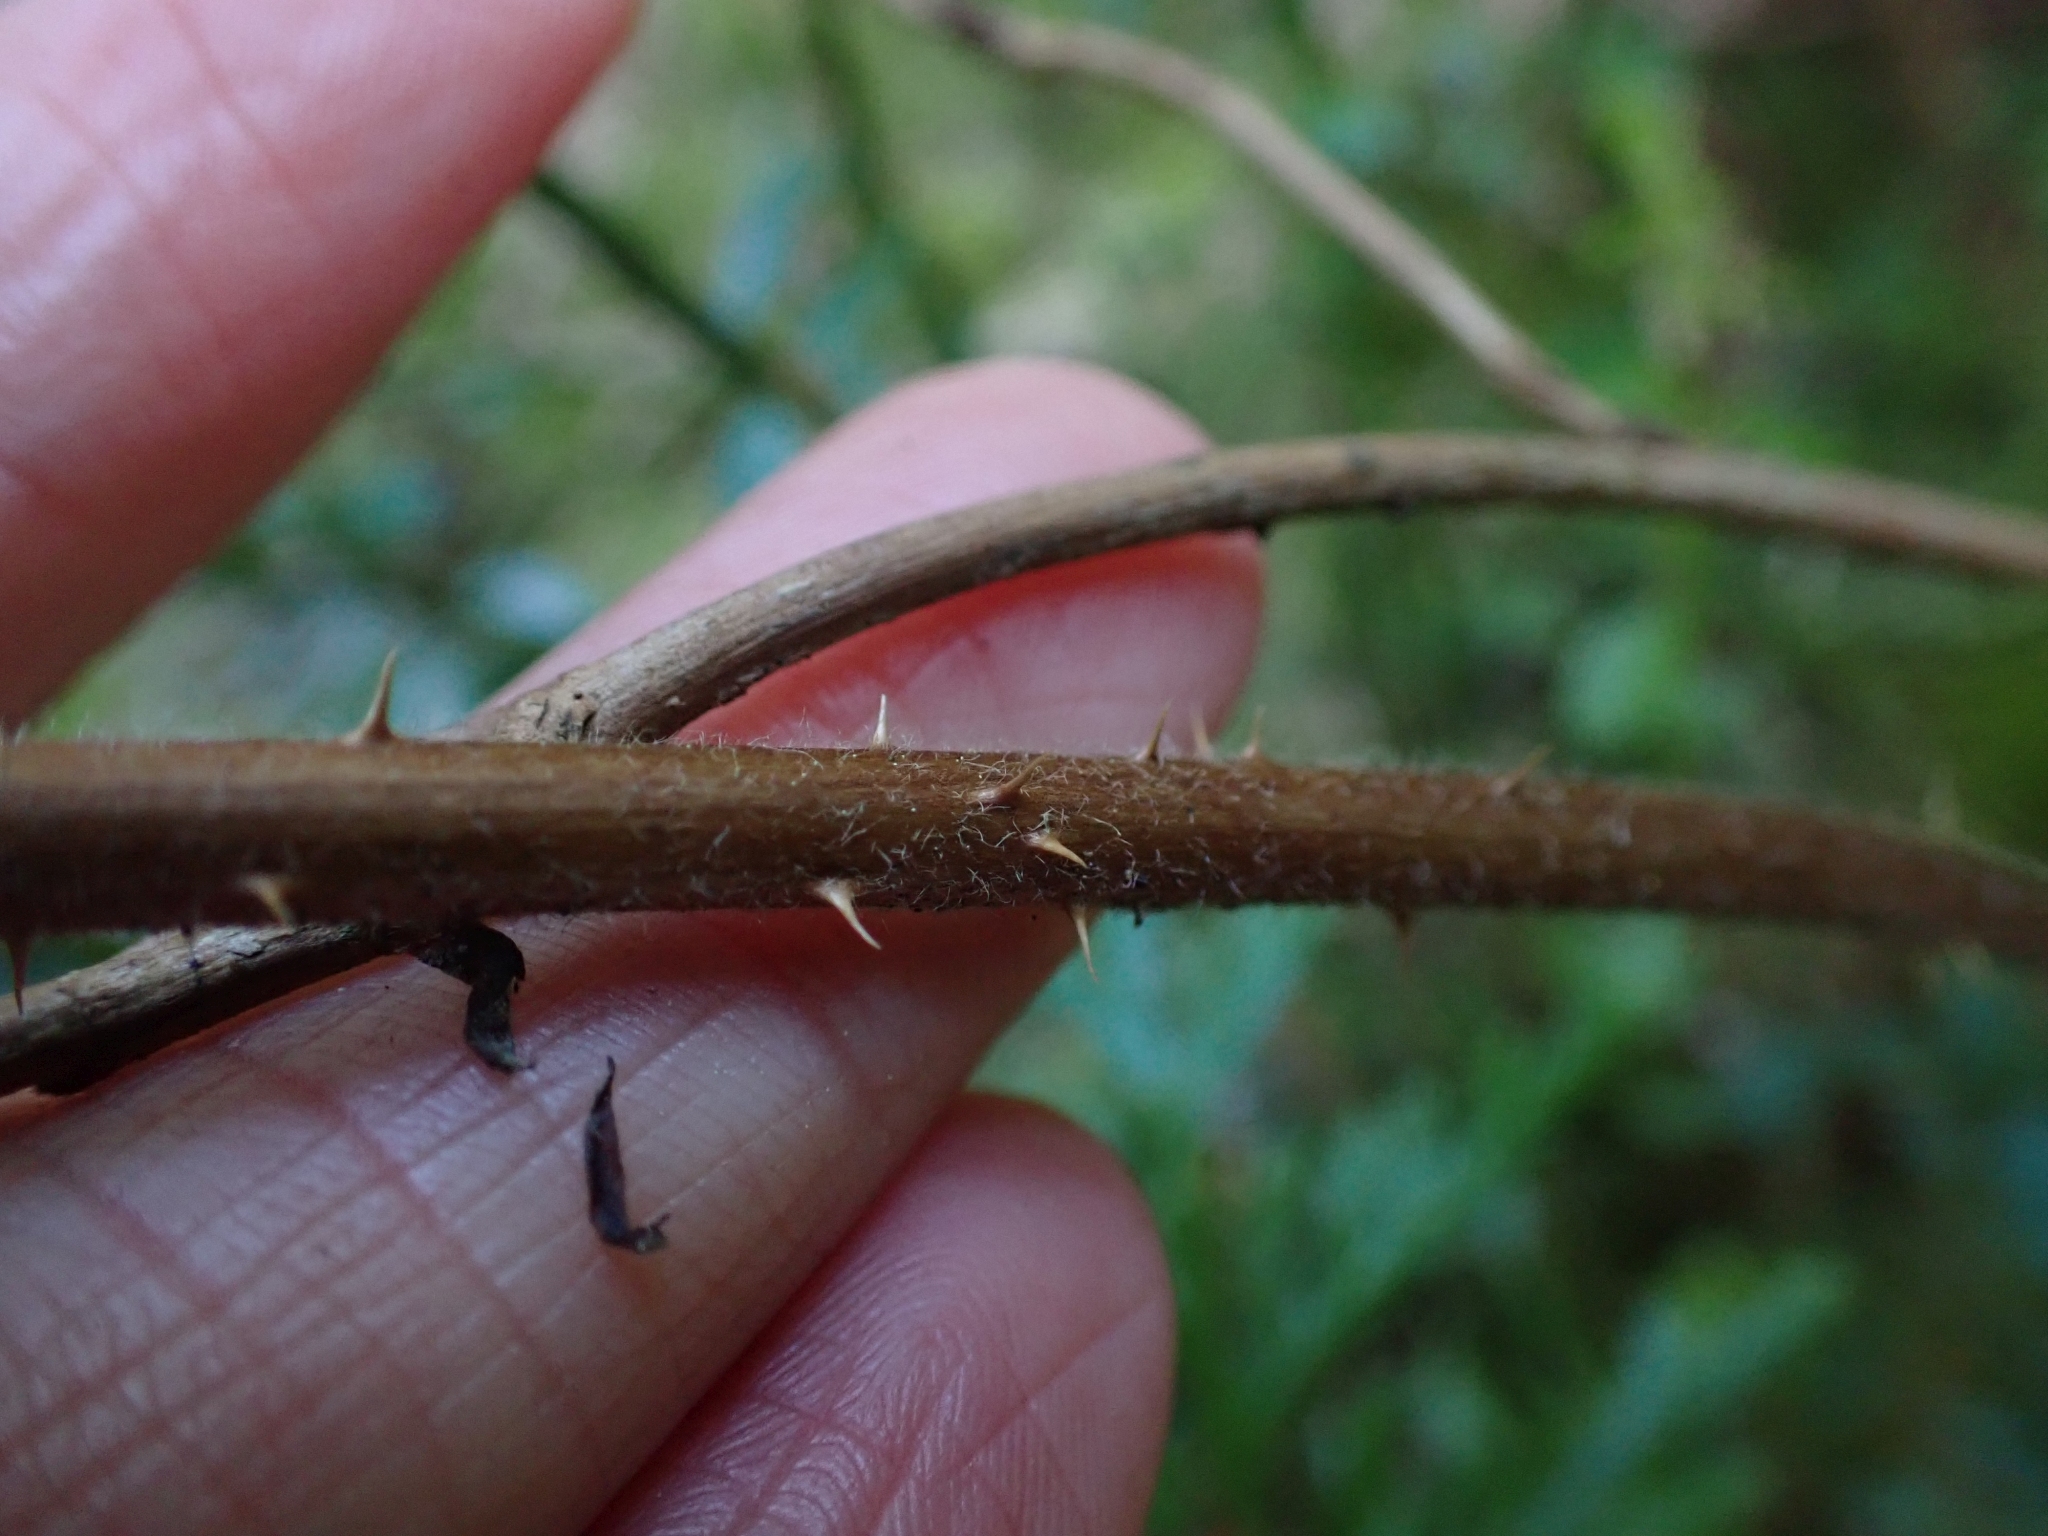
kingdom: Plantae
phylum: Tracheophyta
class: Magnoliopsida
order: Rosales
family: Rosaceae
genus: Rubus
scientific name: Rubus spectabilis
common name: Salmonberry
